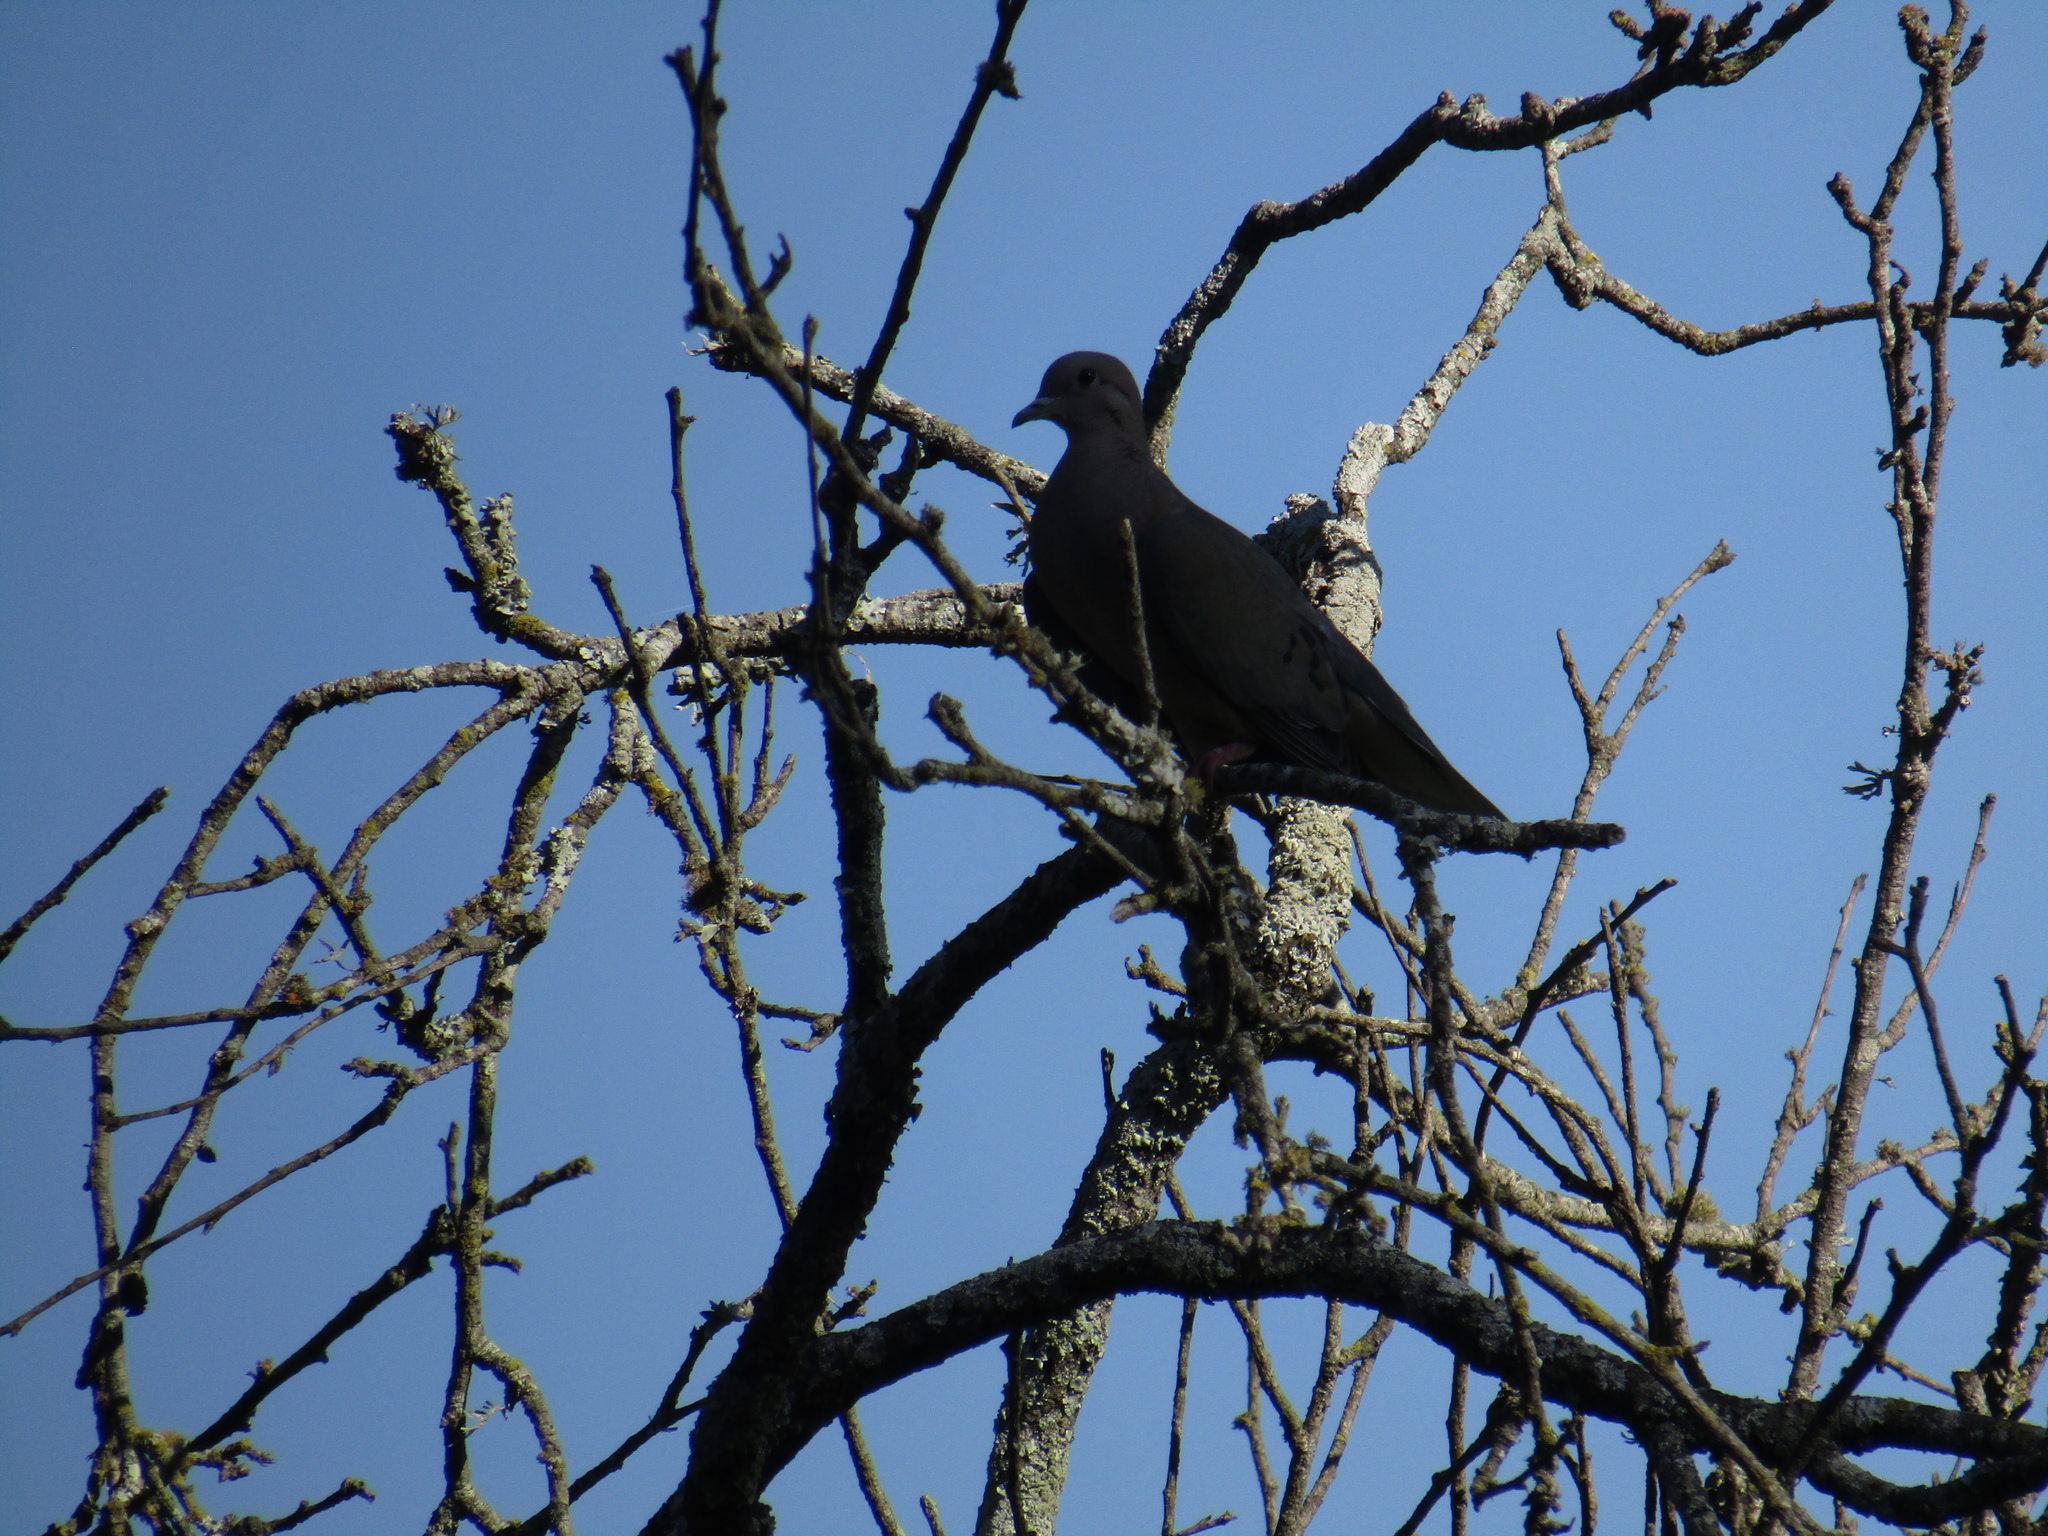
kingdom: Animalia
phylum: Chordata
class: Aves
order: Columbiformes
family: Columbidae
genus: Zenaida
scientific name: Zenaida auriculata
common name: Eared dove
